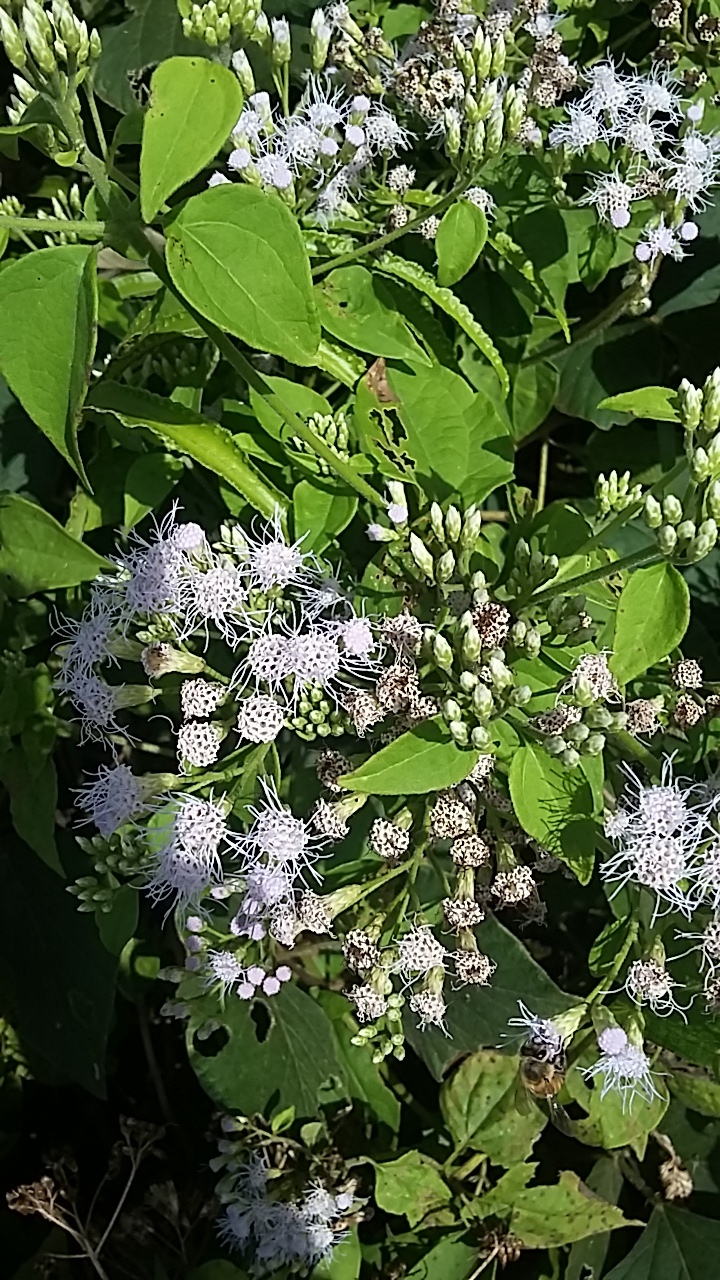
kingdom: Plantae
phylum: Tracheophyta
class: Magnoliopsida
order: Asterales
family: Asteraceae
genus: Chromolaena
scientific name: Chromolaena odorata
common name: Siamweed
